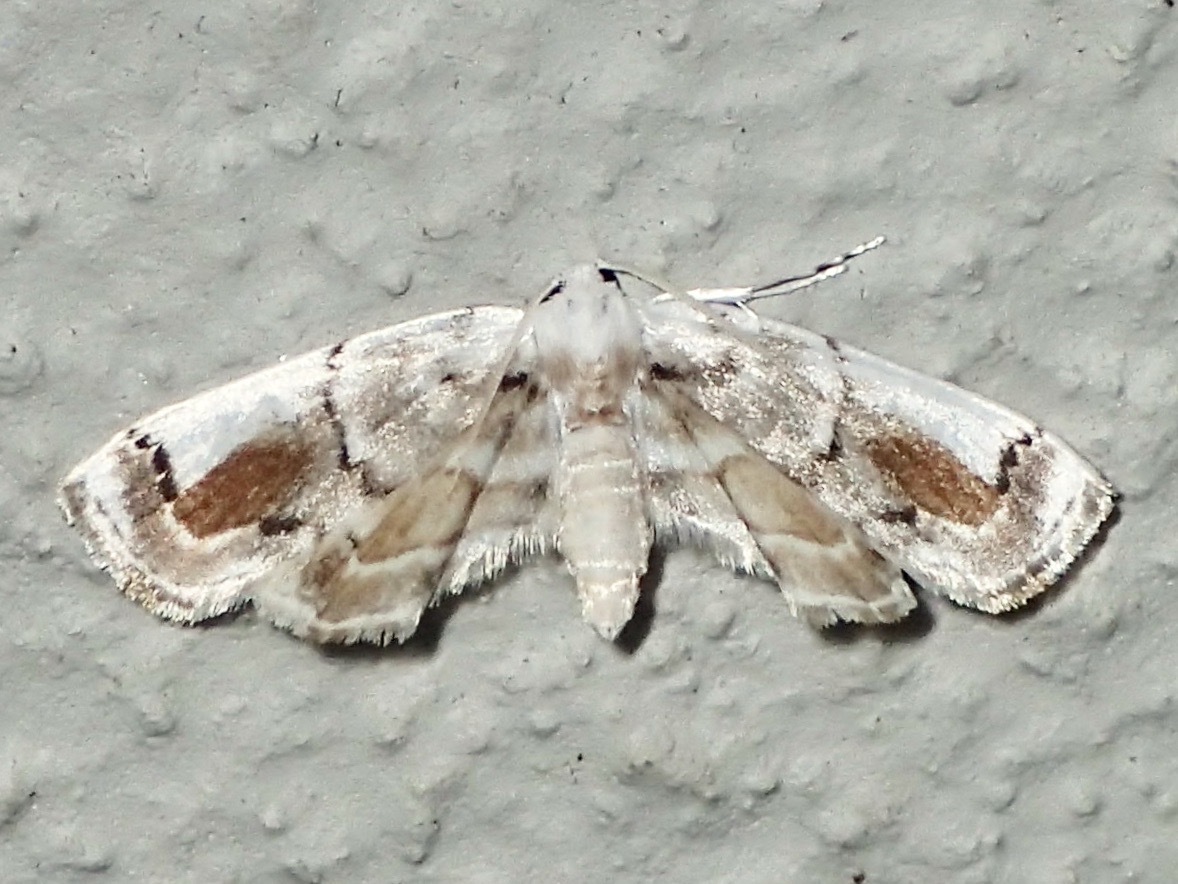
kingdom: Animalia
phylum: Arthropoda
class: Insecta
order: Lepidoptera
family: Crambidae
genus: Apoblepta
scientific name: Apoblepta epicharis
